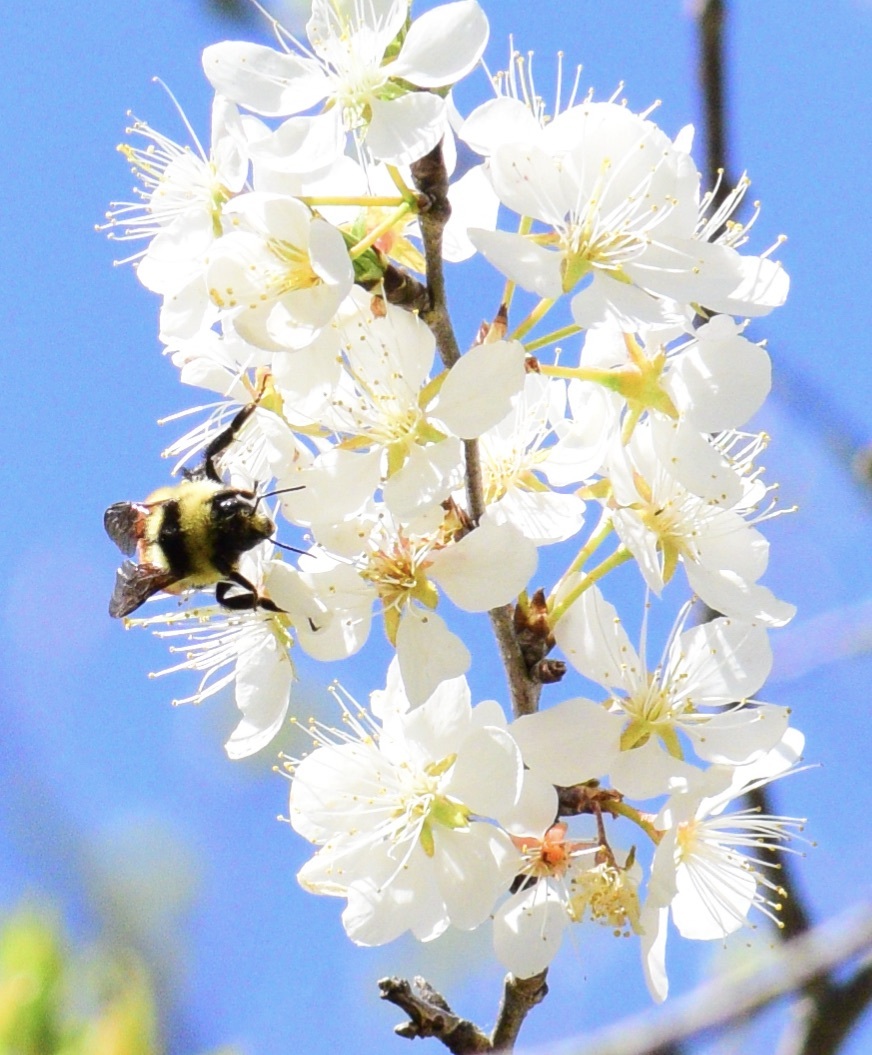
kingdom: Animalia
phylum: Arthropoda
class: Insecta
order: Hymenoptera
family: Apidae
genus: Bombus
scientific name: Bombus ternarius
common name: Tri-colored bumble bee
